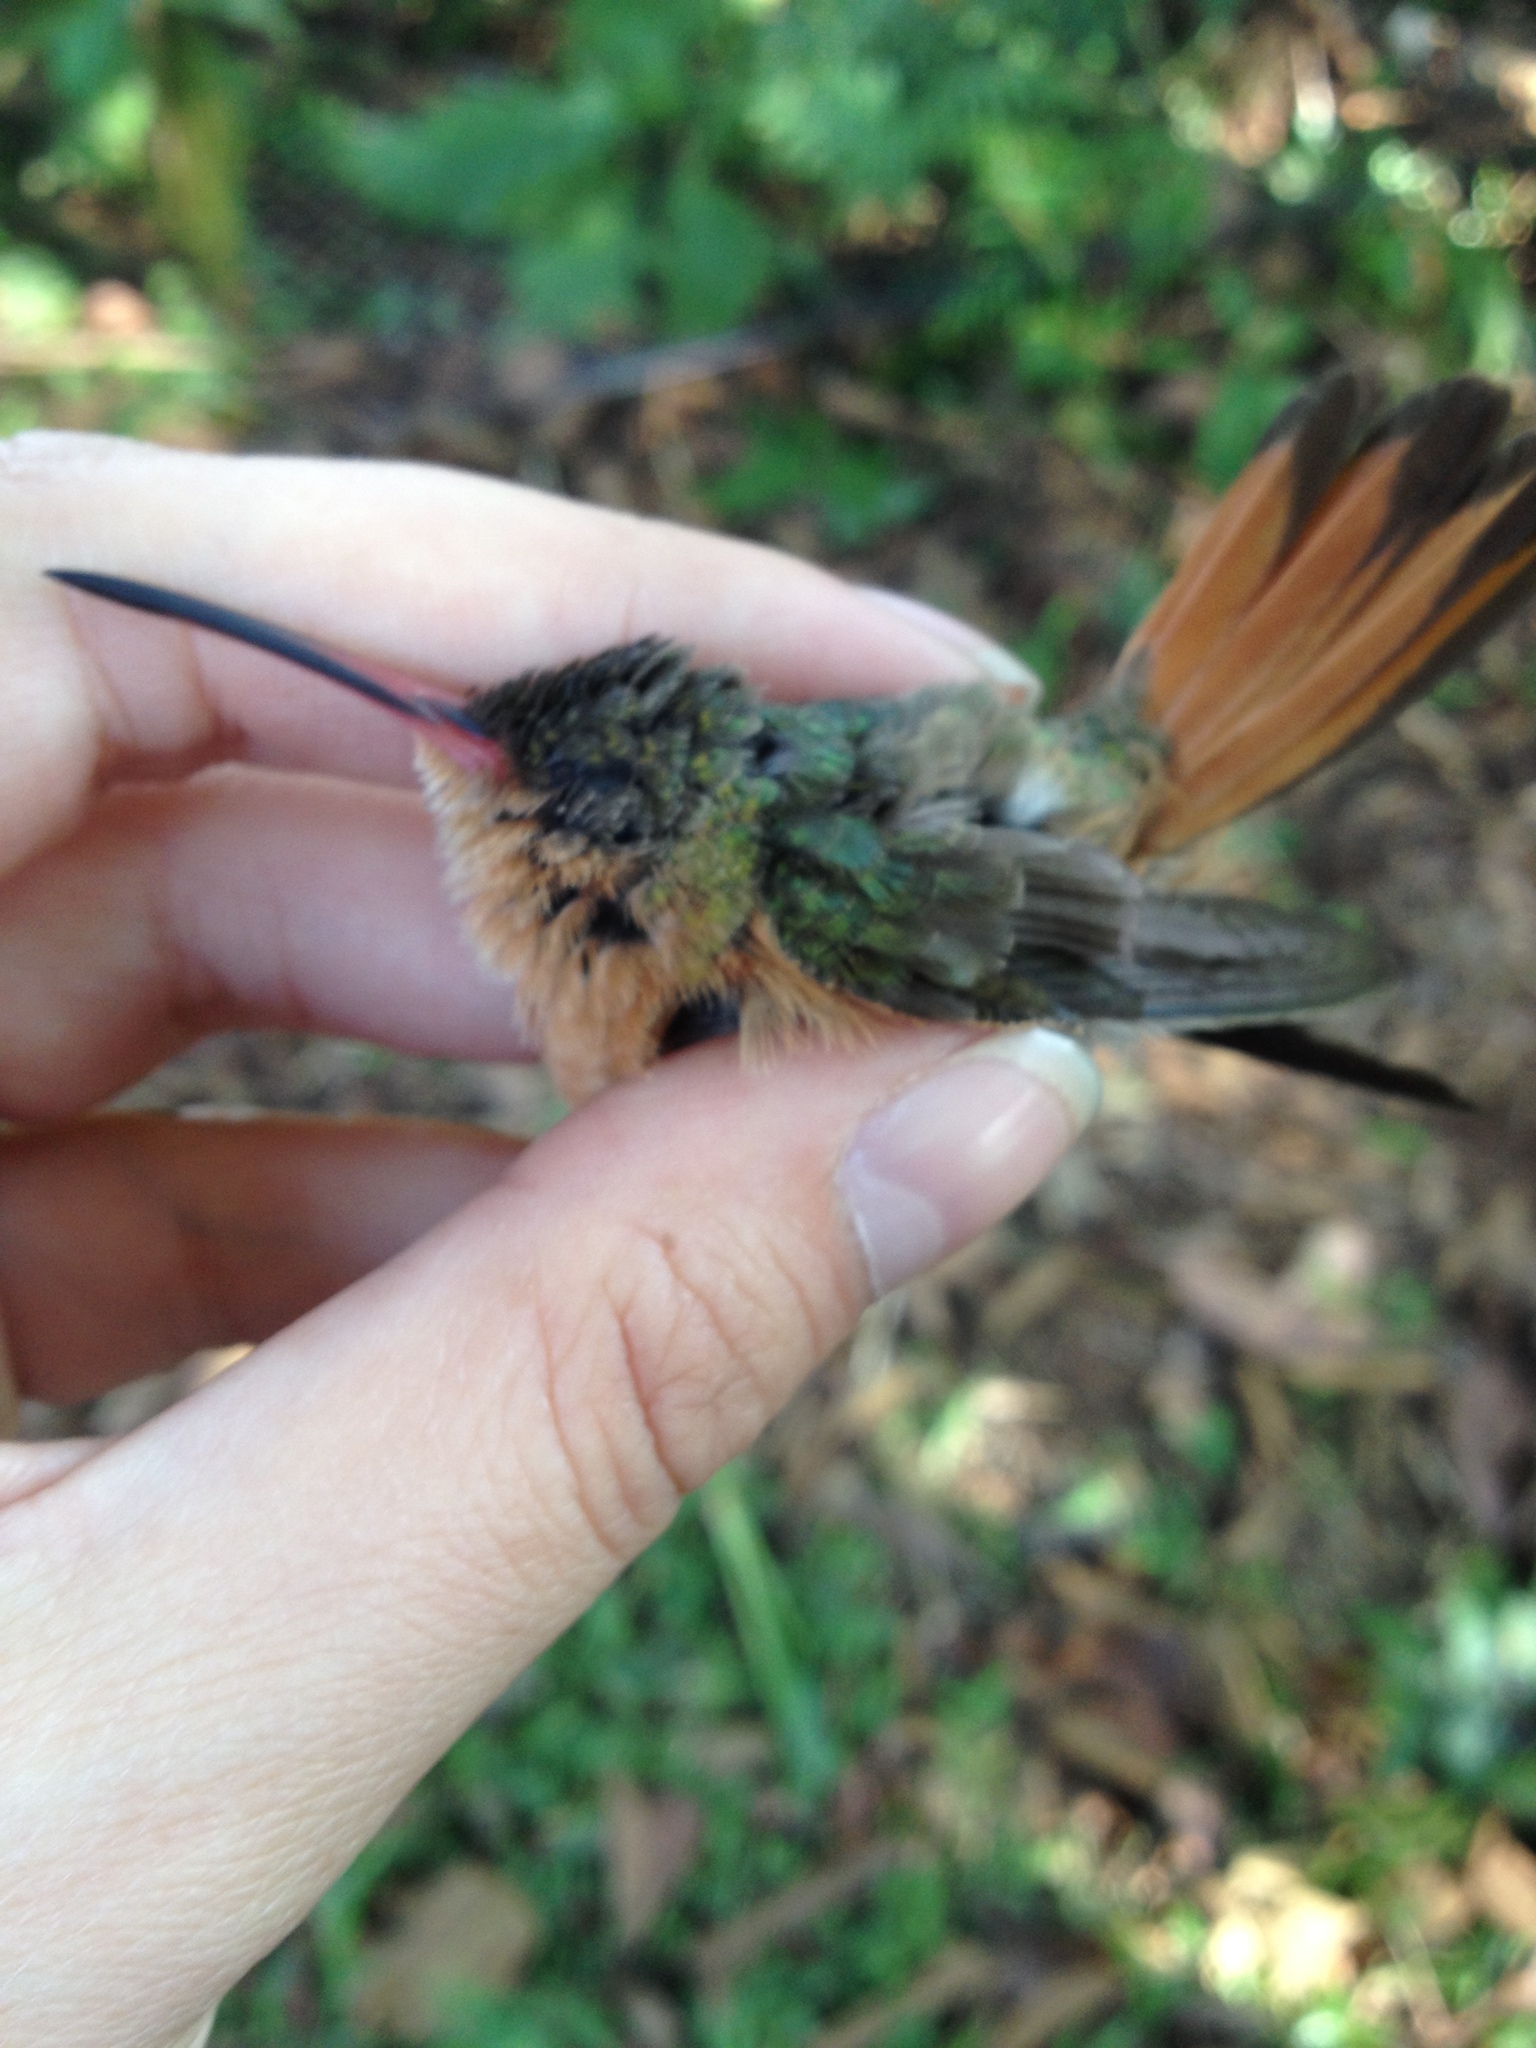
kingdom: Animalia
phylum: Chordata
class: Aves
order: Apodiformes
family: Trochilidae
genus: Amazilia
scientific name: Amazilia rutila
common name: Cinnamon hummingbird
